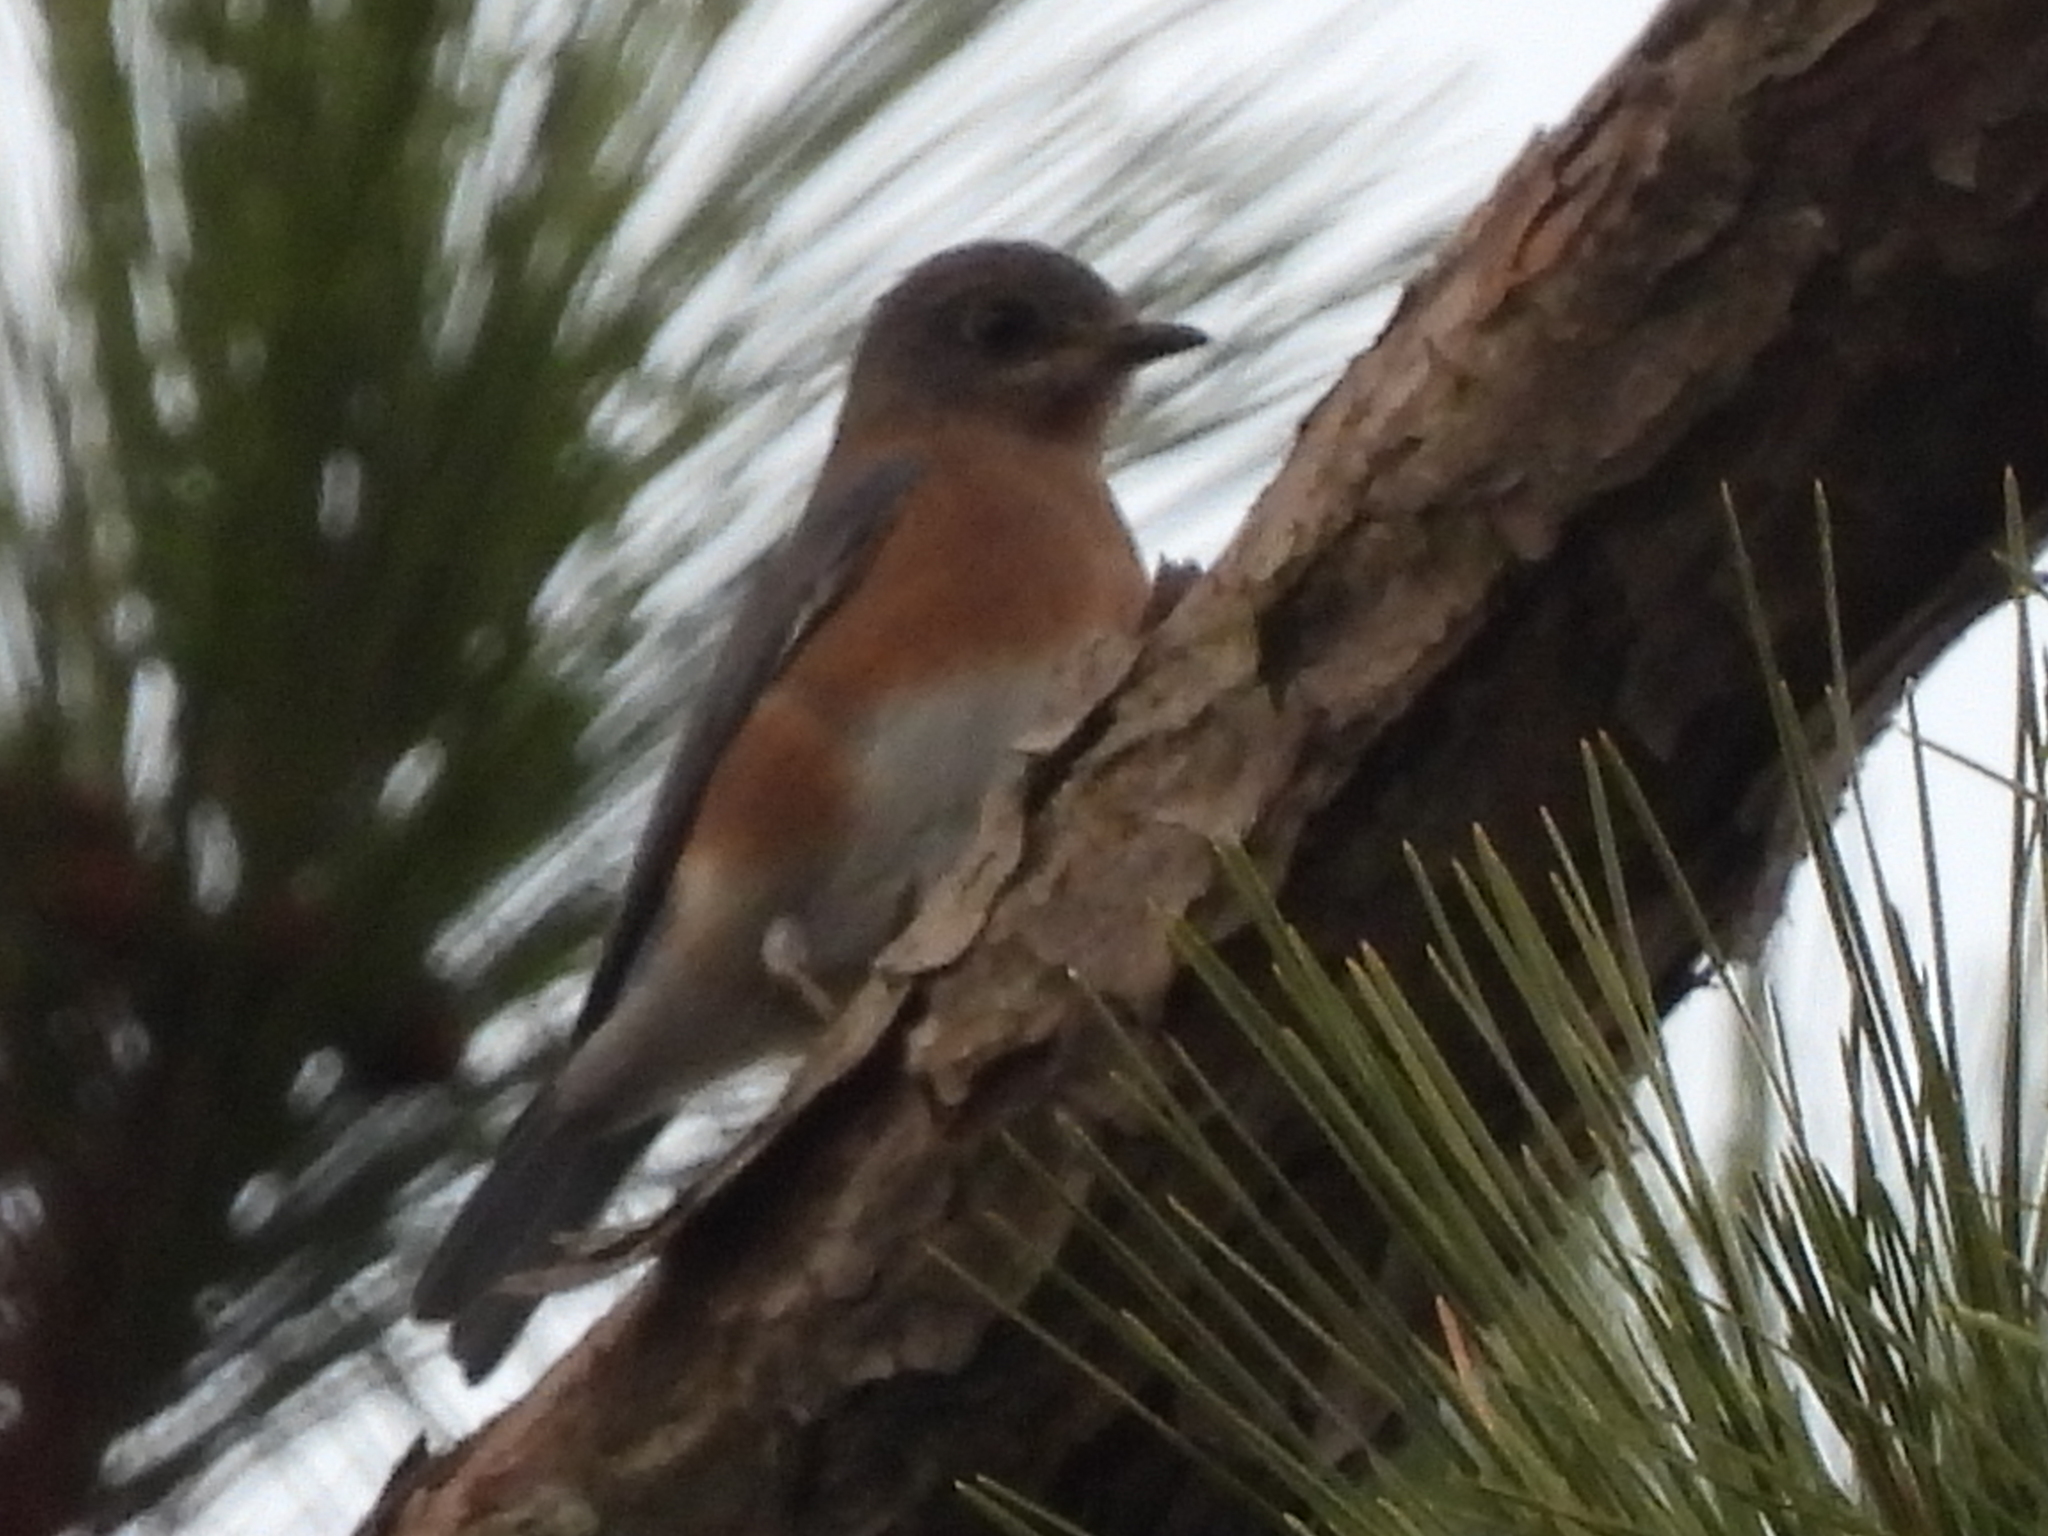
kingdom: Animalia
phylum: Chordata
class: Aves
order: Passeriformes
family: Turdidae
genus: Sialia
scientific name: Sialia sialis
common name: Eastern bluebird
